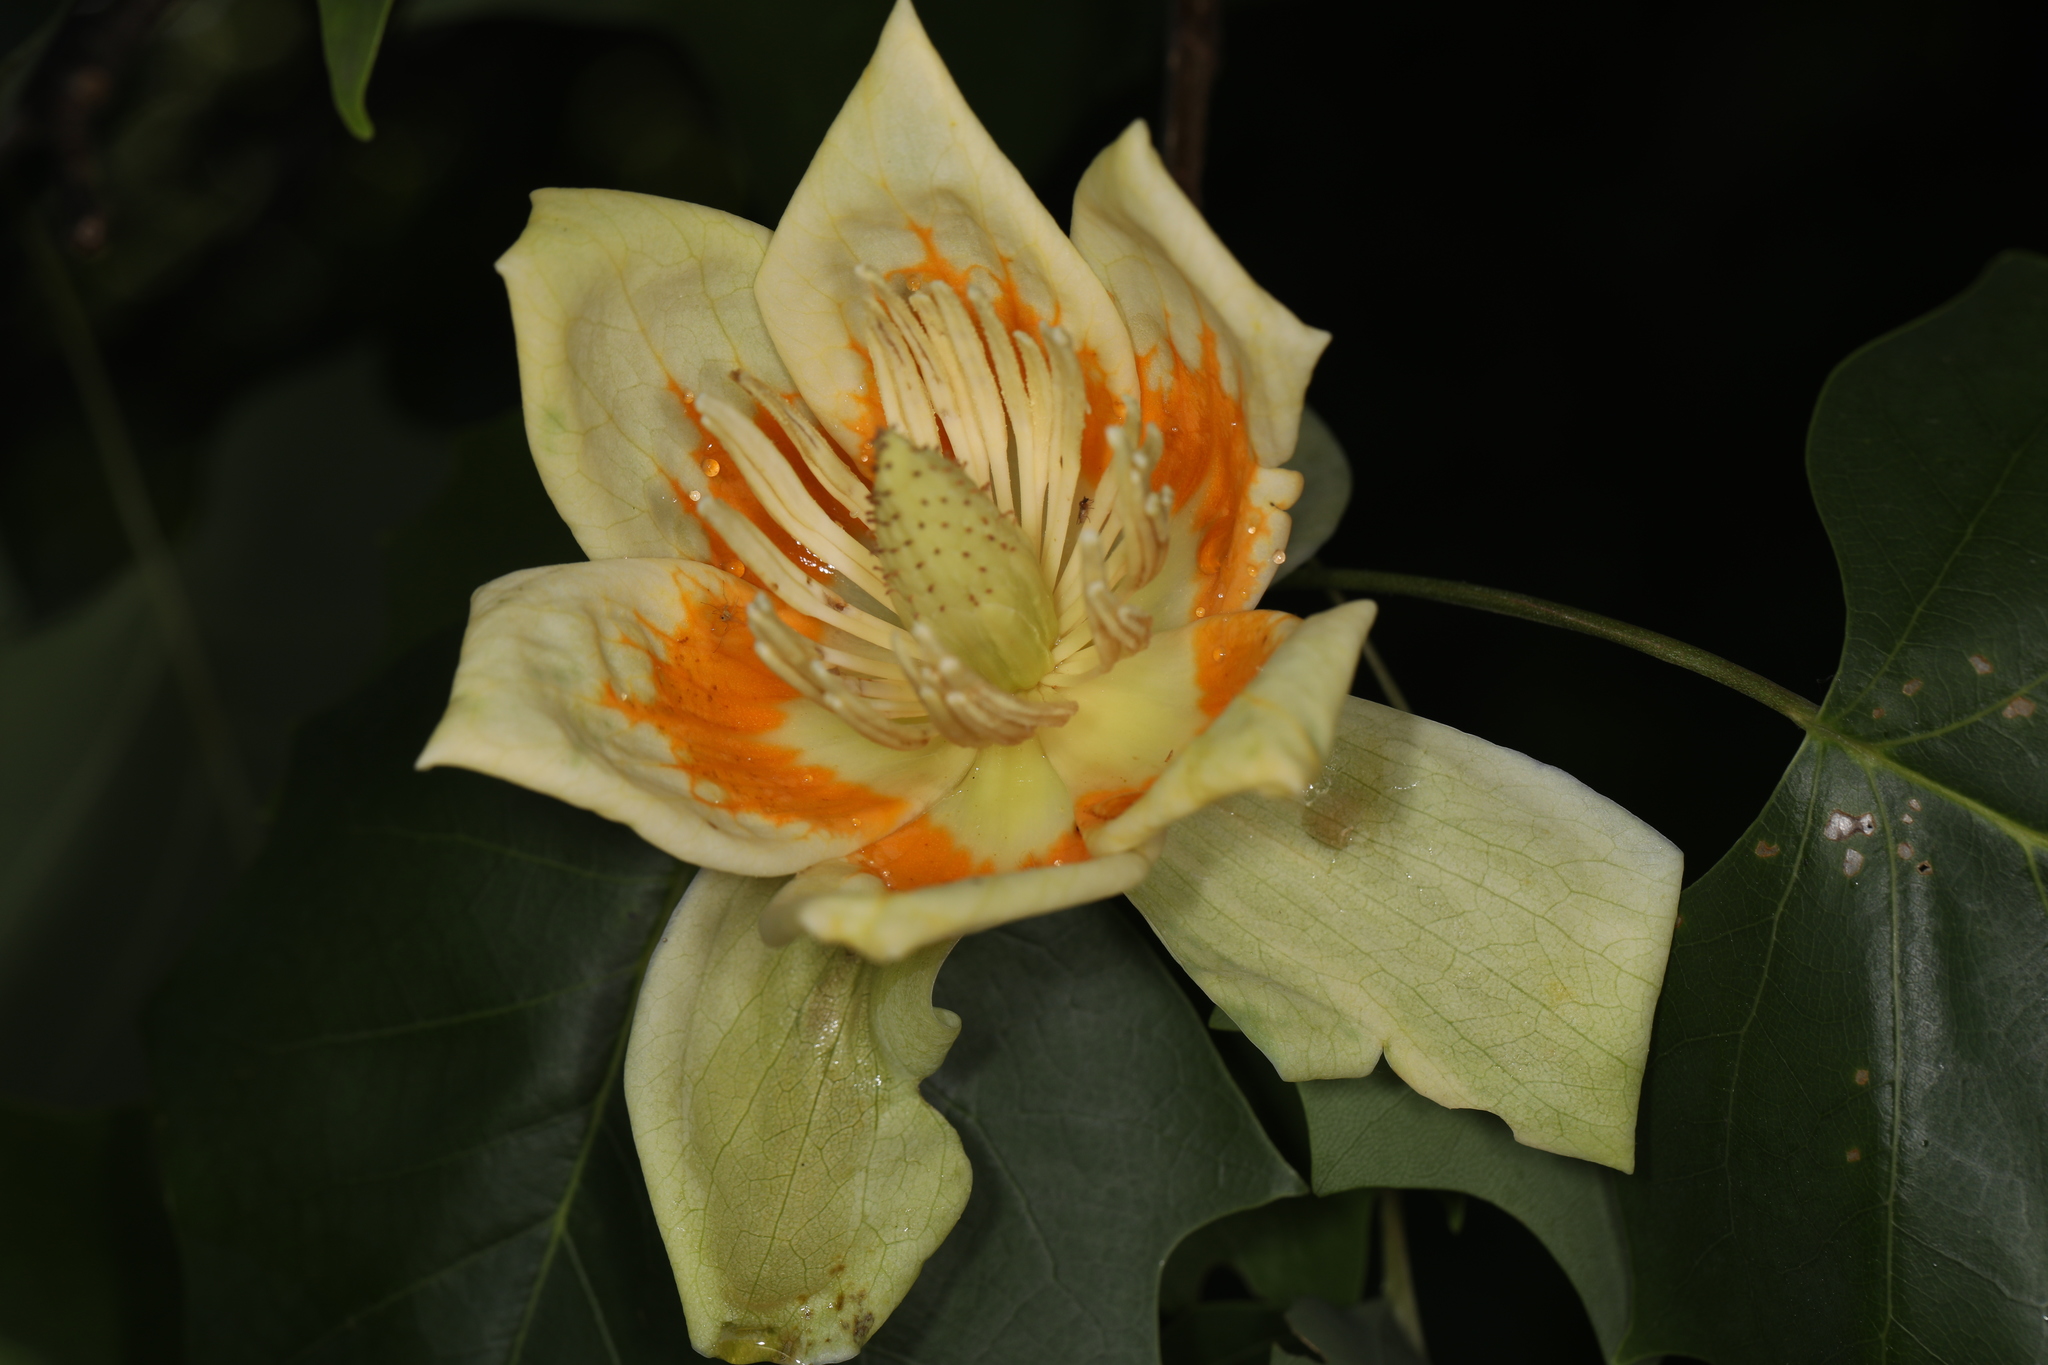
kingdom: Plantae
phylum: Tracheophyta
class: Magnoliopsida
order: Magnoliales
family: Magnoliaceae
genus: Liriodendron
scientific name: Liriodendron tulipifera
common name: Tulip tree
